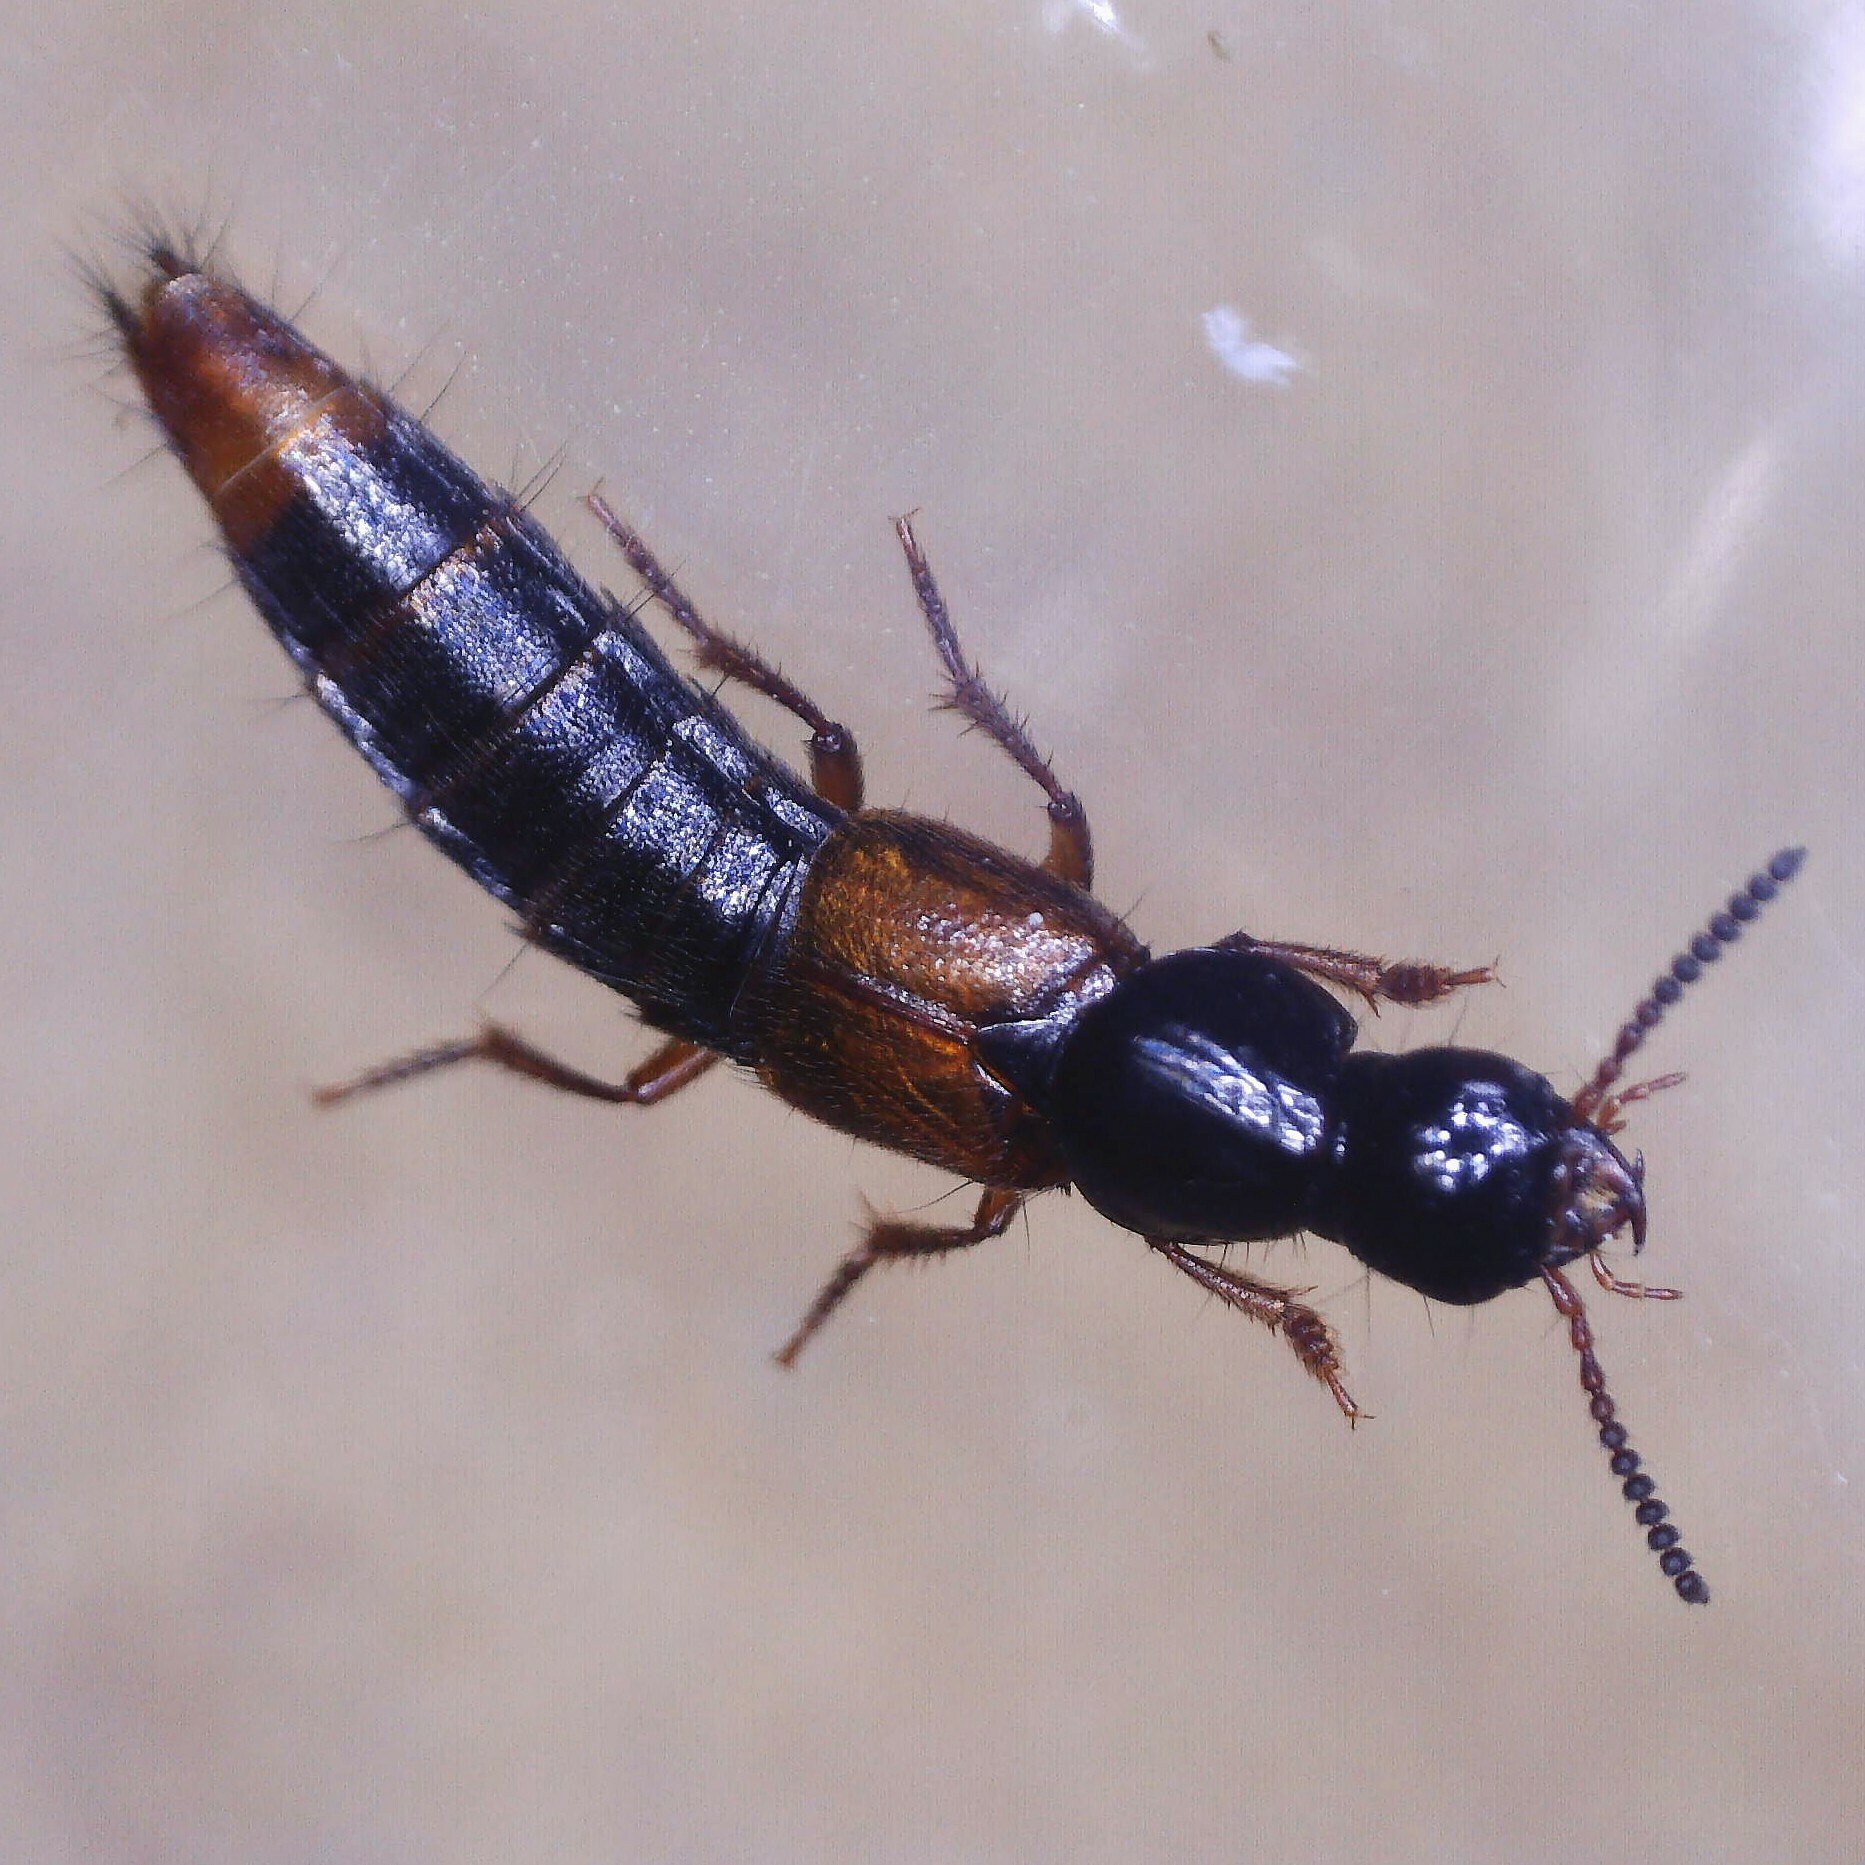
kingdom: Animalia
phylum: Arthropoda
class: Insecta
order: Coleoptera
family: Staphylinidae
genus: Quedius
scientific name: Quedius cruentus
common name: Rove beetle
